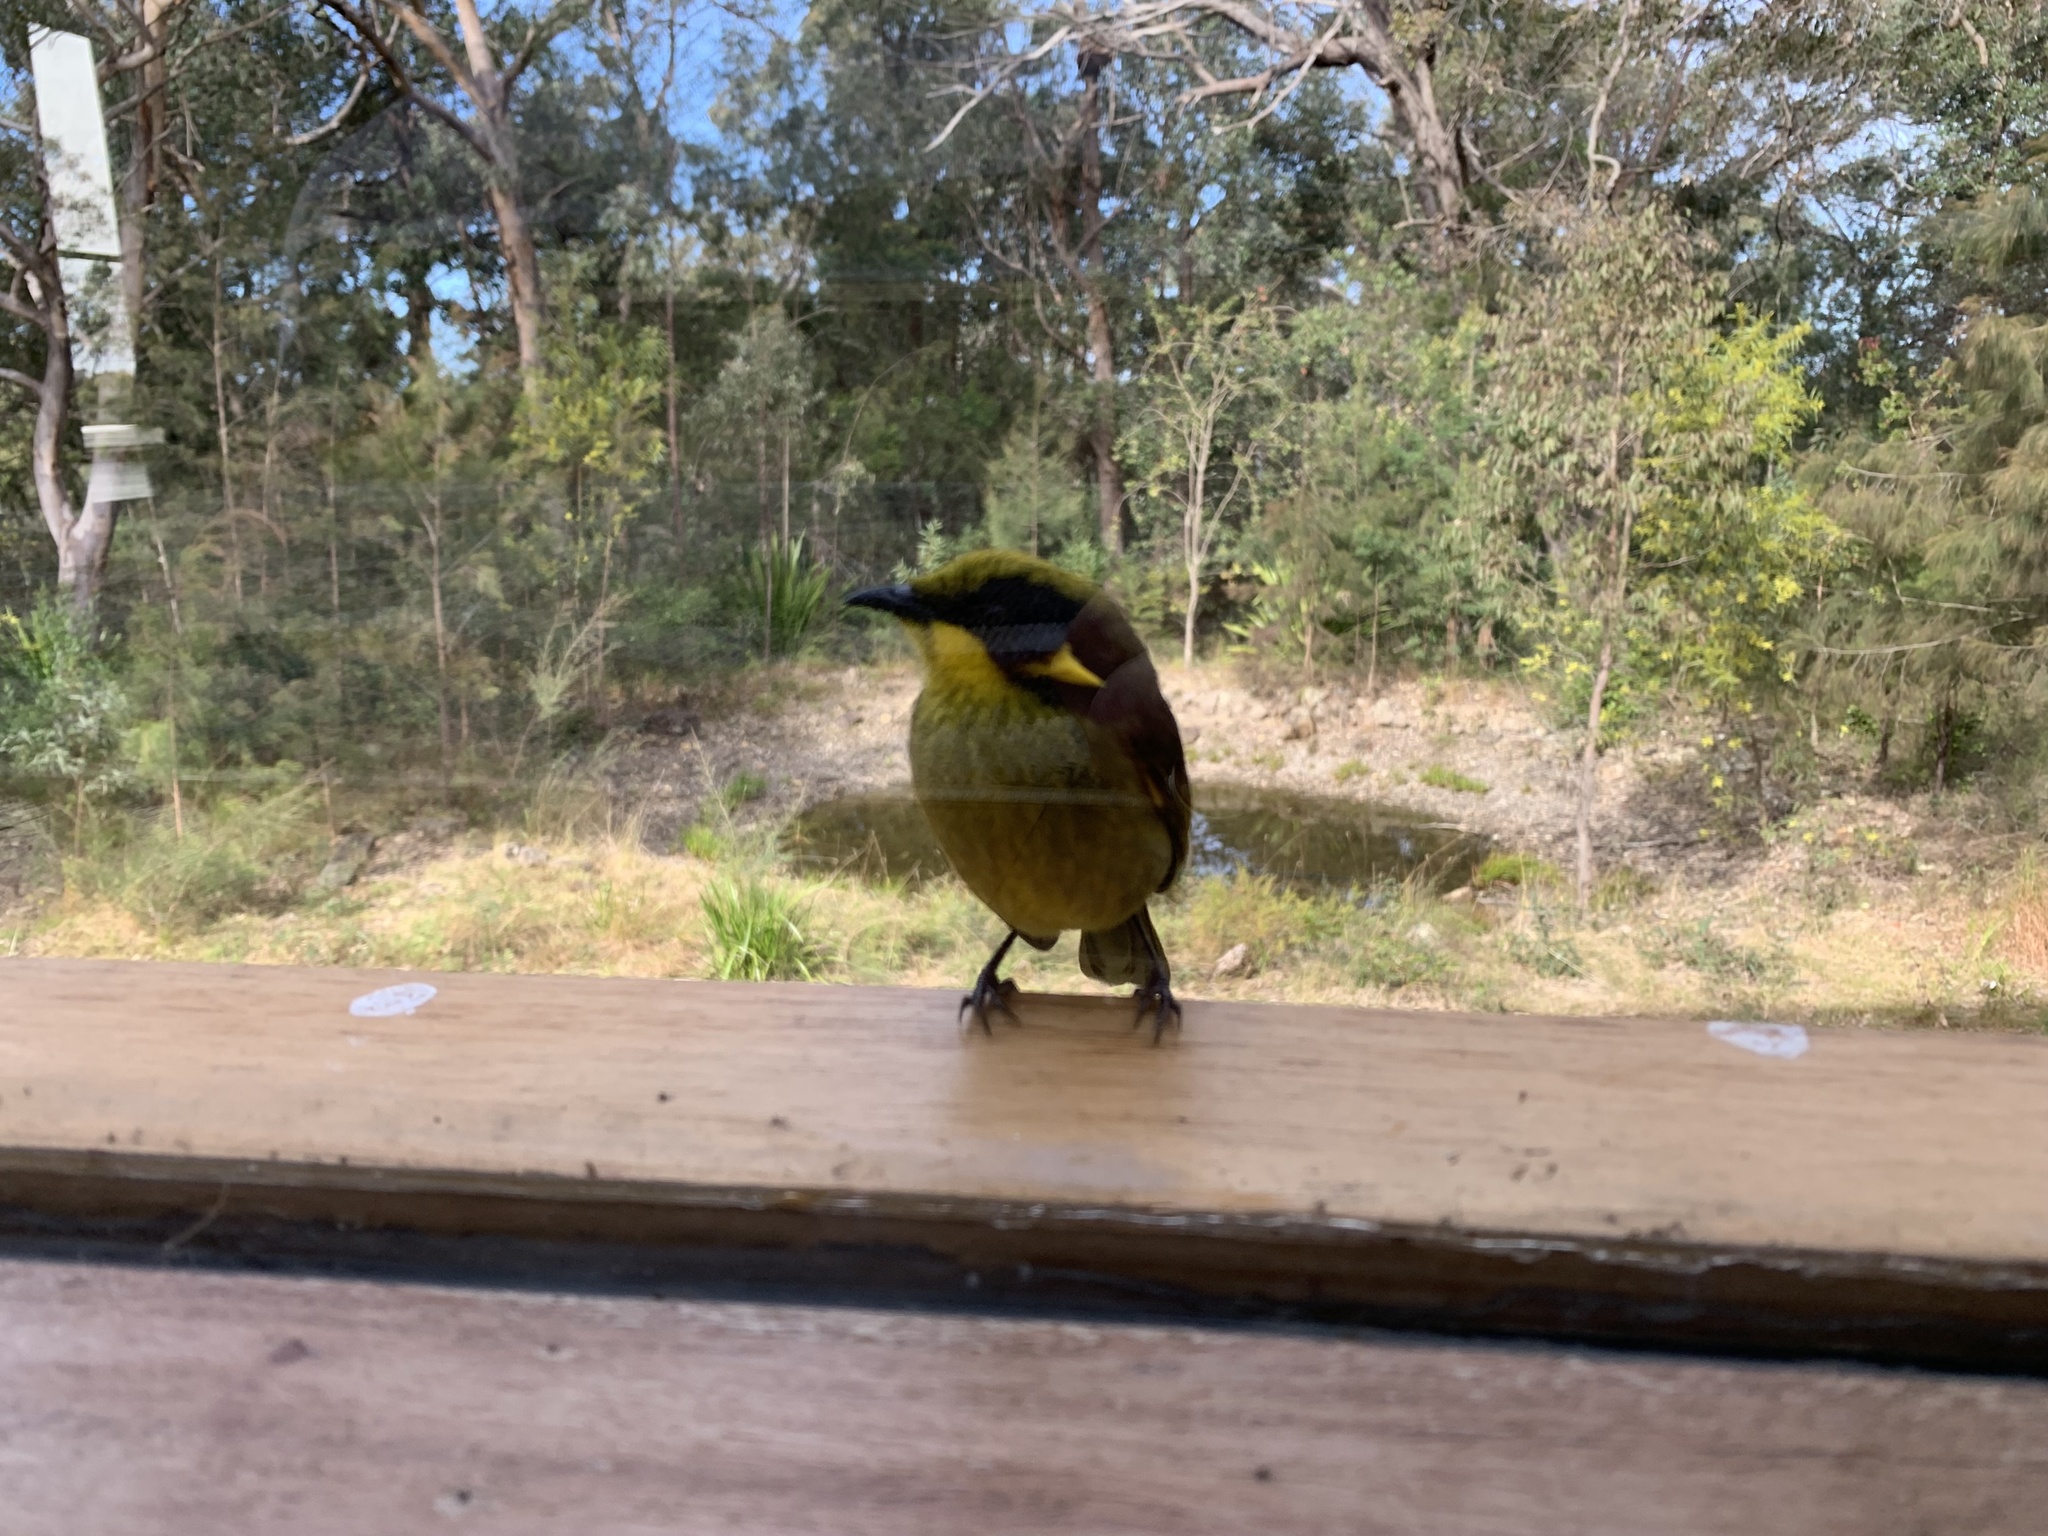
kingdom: Animalia
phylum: Chordata
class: Aves
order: Passeriformes
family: Meliphagidae
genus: Lichenostomus
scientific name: Lichenostomus melanops
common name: Yellow-tufted honeyeater
